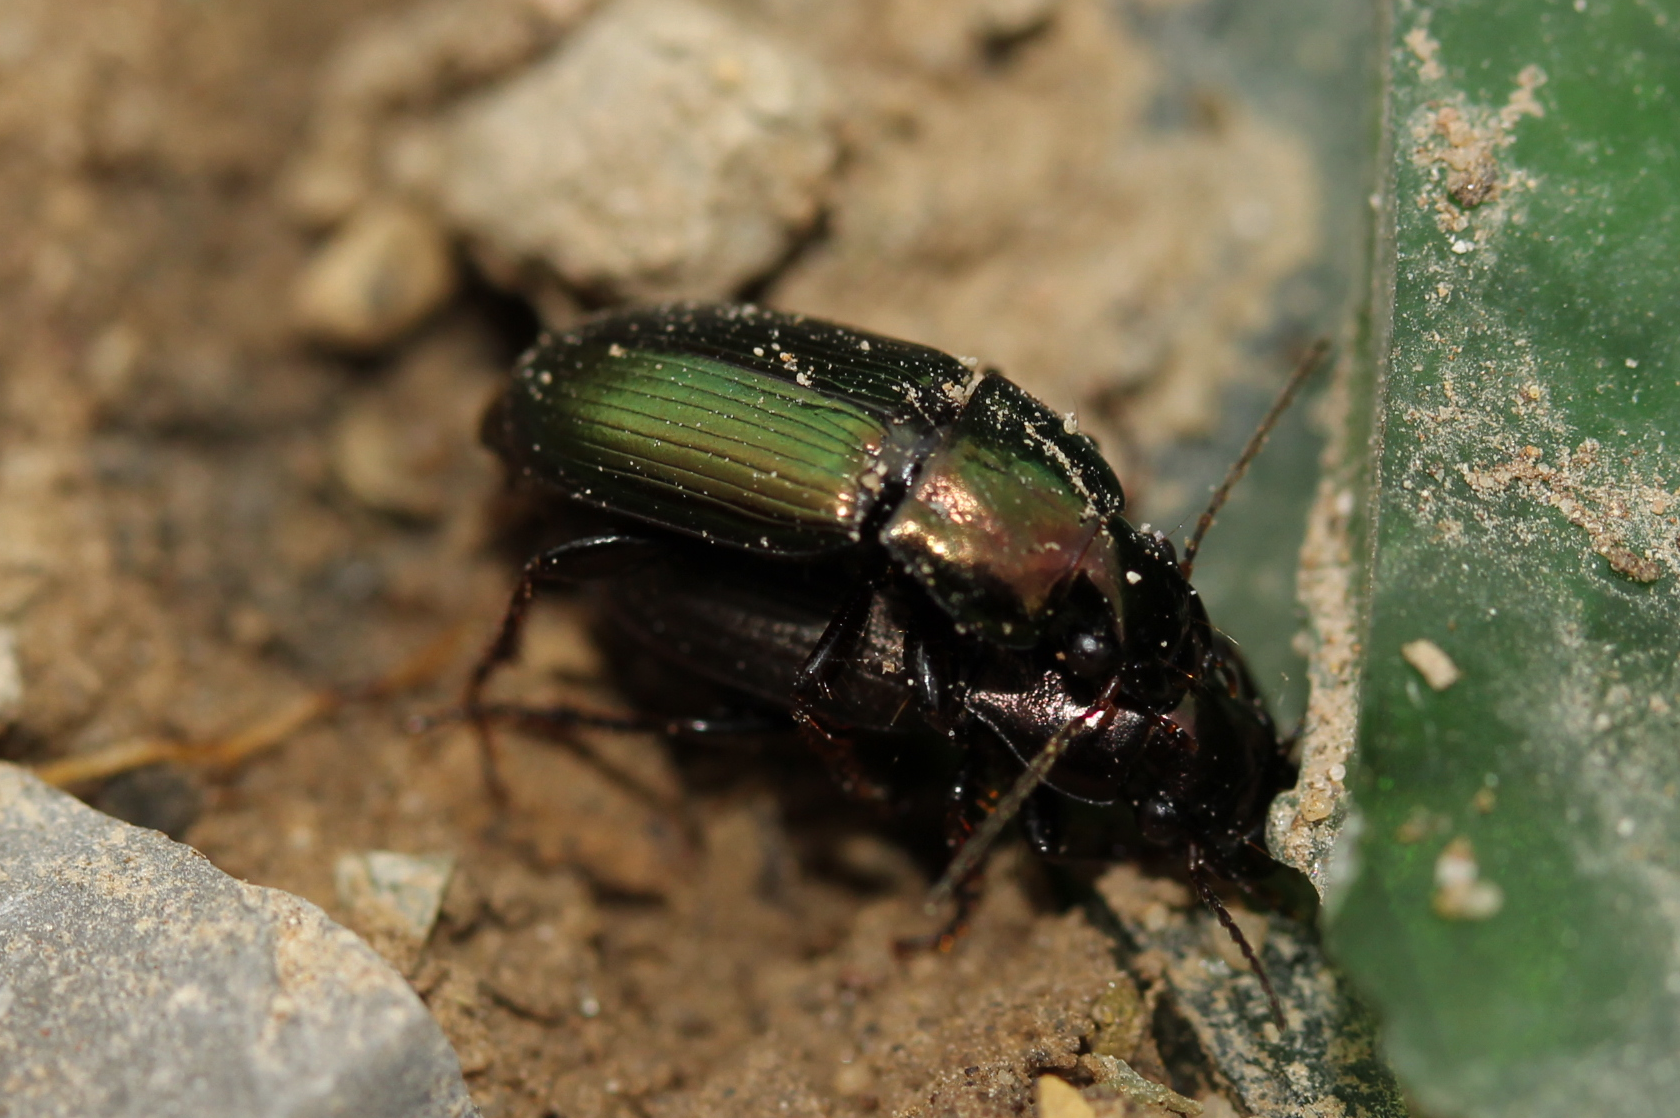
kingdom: Animalia
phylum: Arthropoda
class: Insecta
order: Coleoptera
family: Carabidae
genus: Harpalus
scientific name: Harpalus distinguendus
